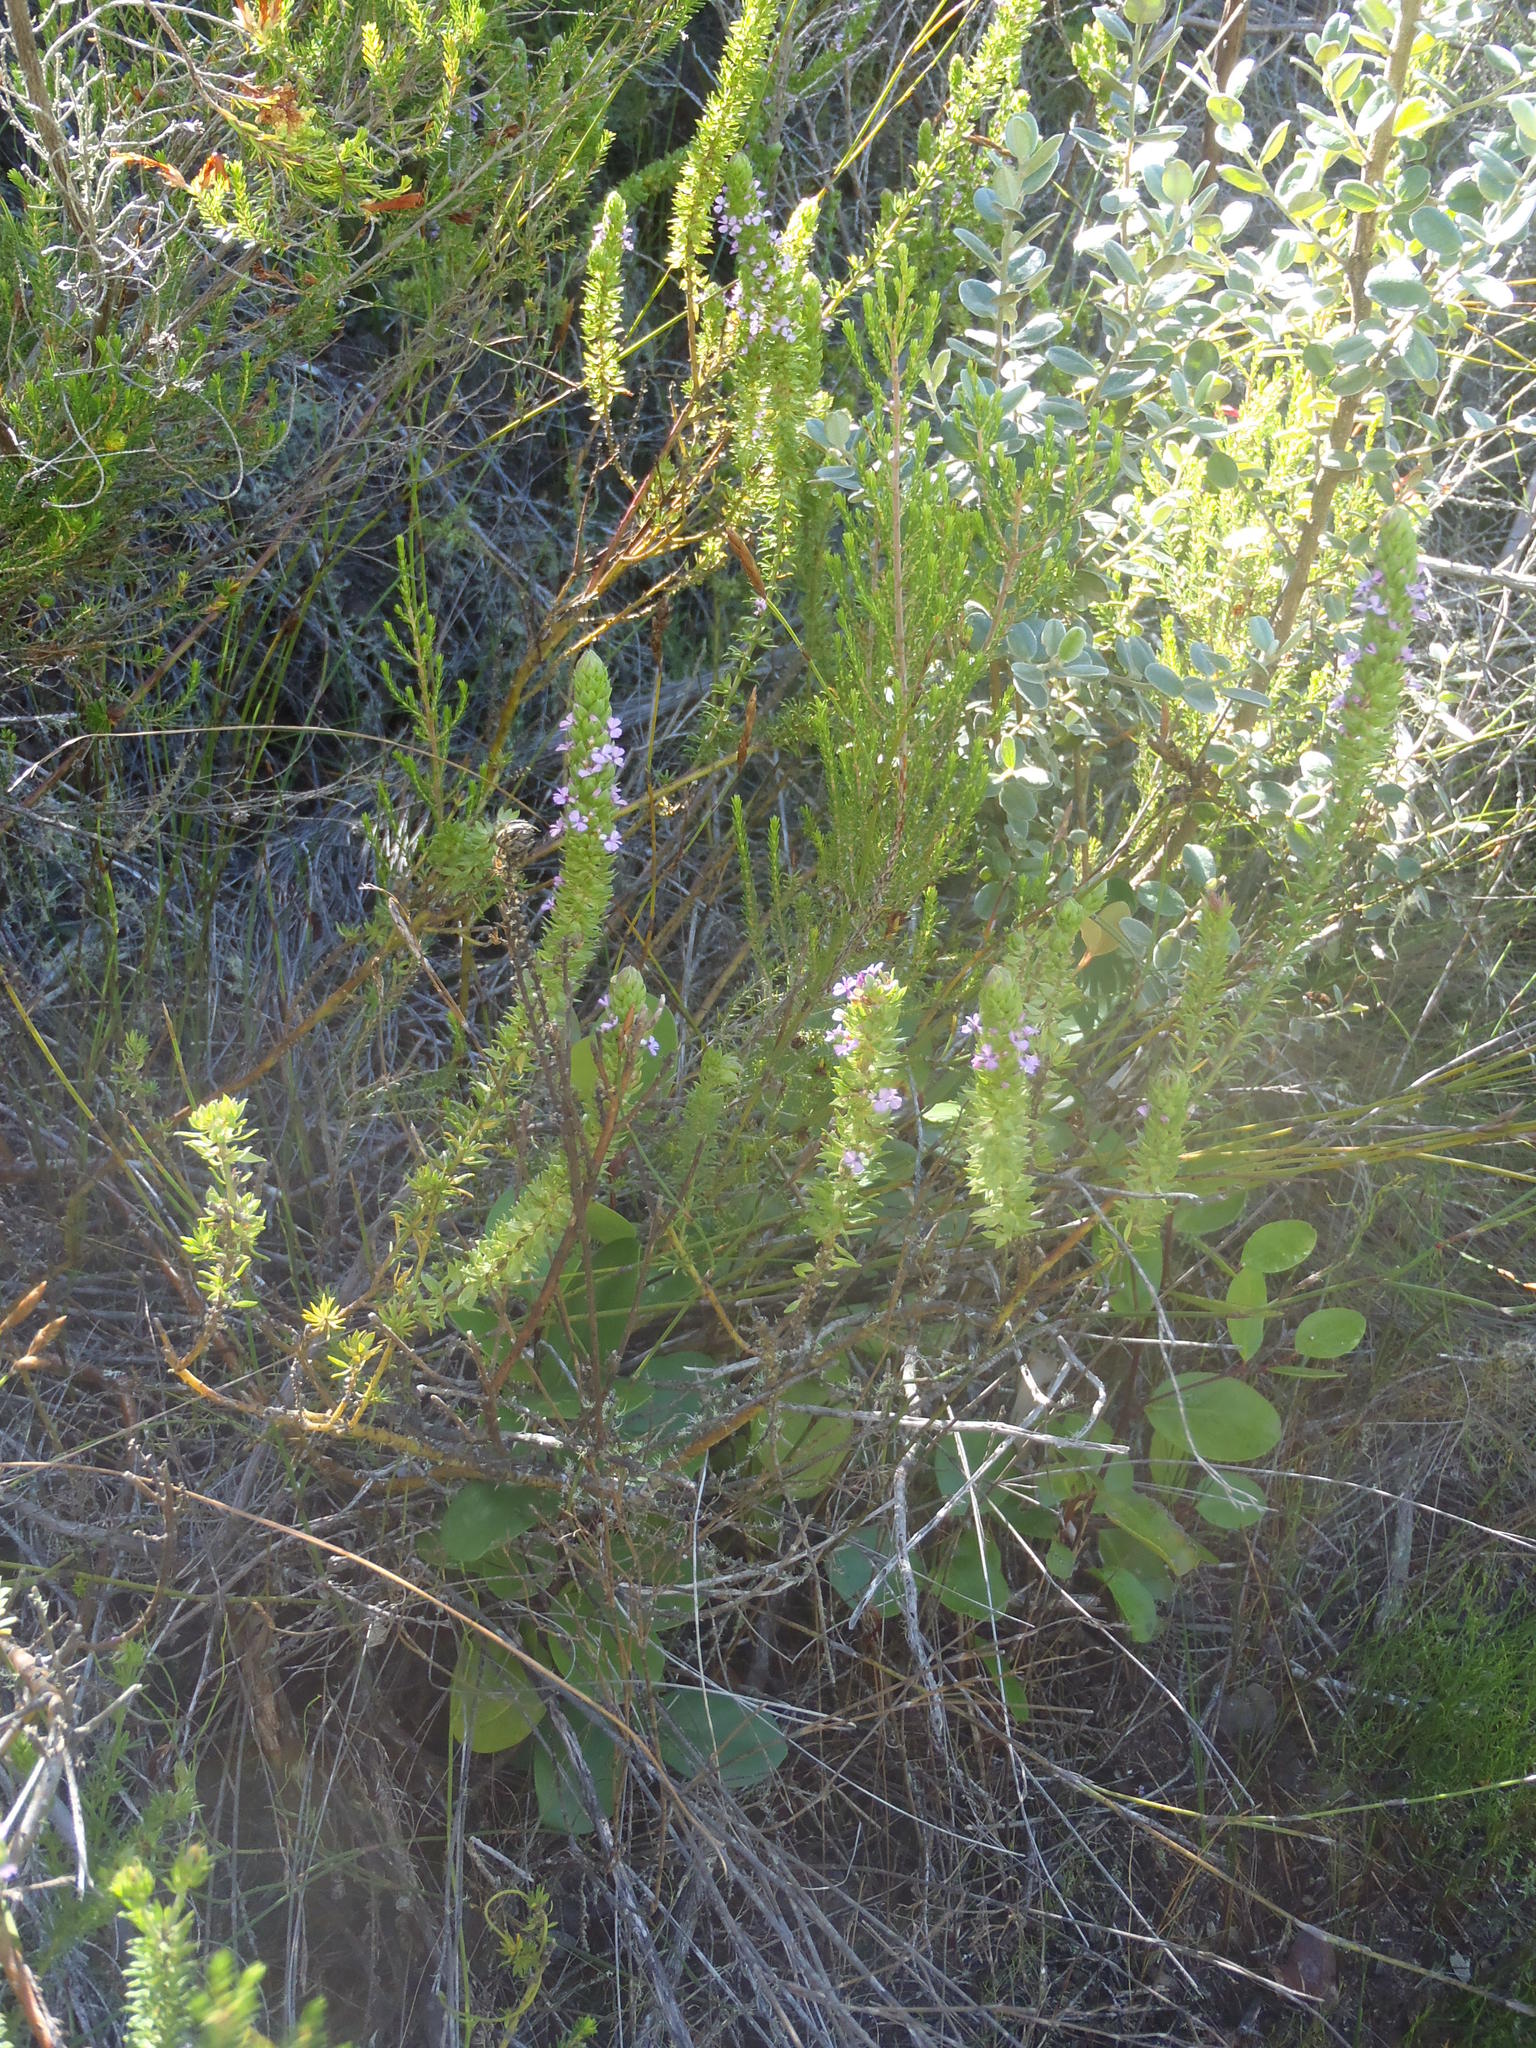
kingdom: Plantae
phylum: Tracheophyta
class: Magnoliopsida
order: Fabales
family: Polygalaceae
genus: Muraltia
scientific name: Muraltia satureioides
